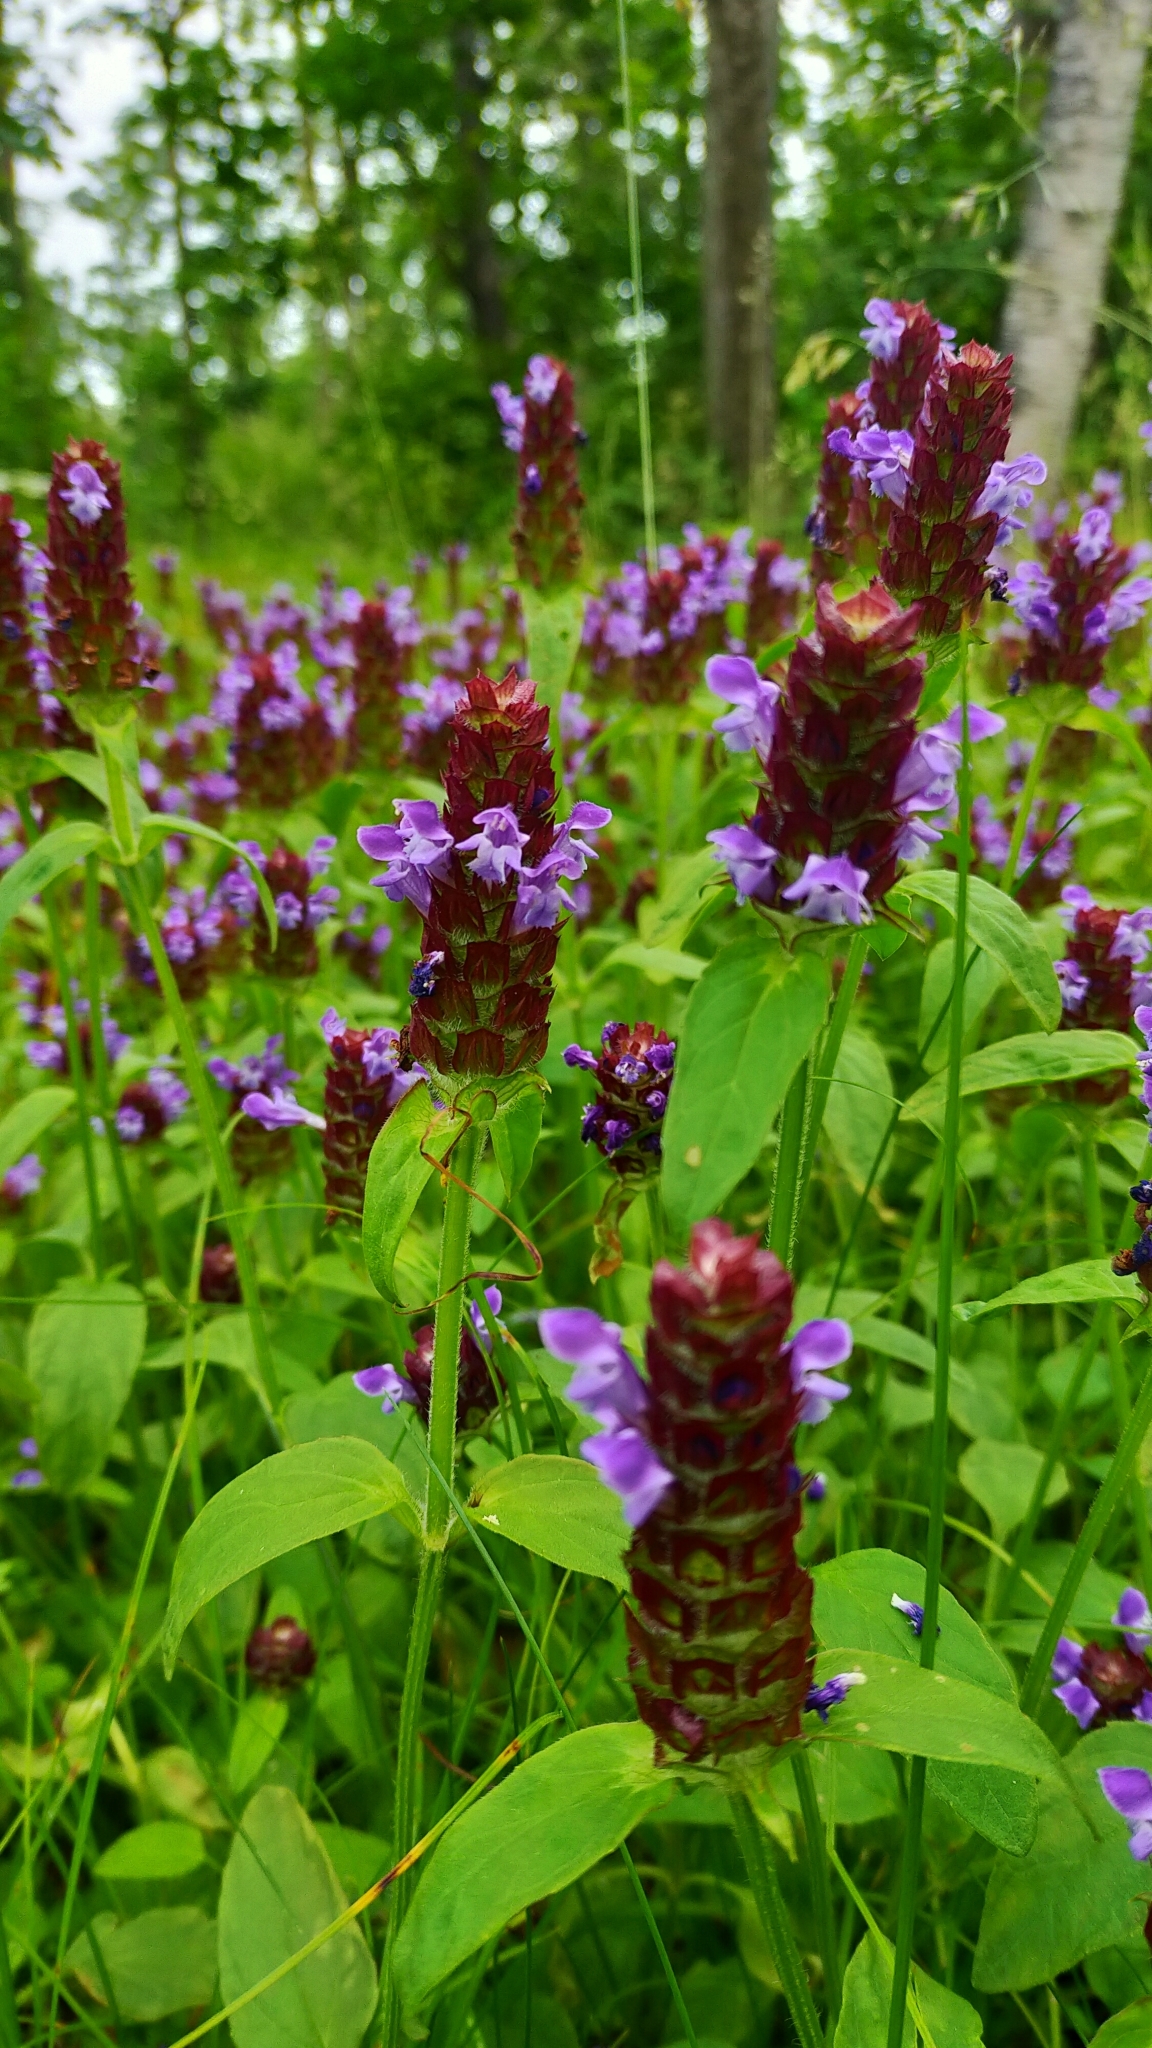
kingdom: Plantae
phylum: Tracheophyta
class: Magnoliopsida
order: Lamiales
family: Lamiaceae
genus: Prunella
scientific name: Prunella vulgaris
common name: Heal-all
